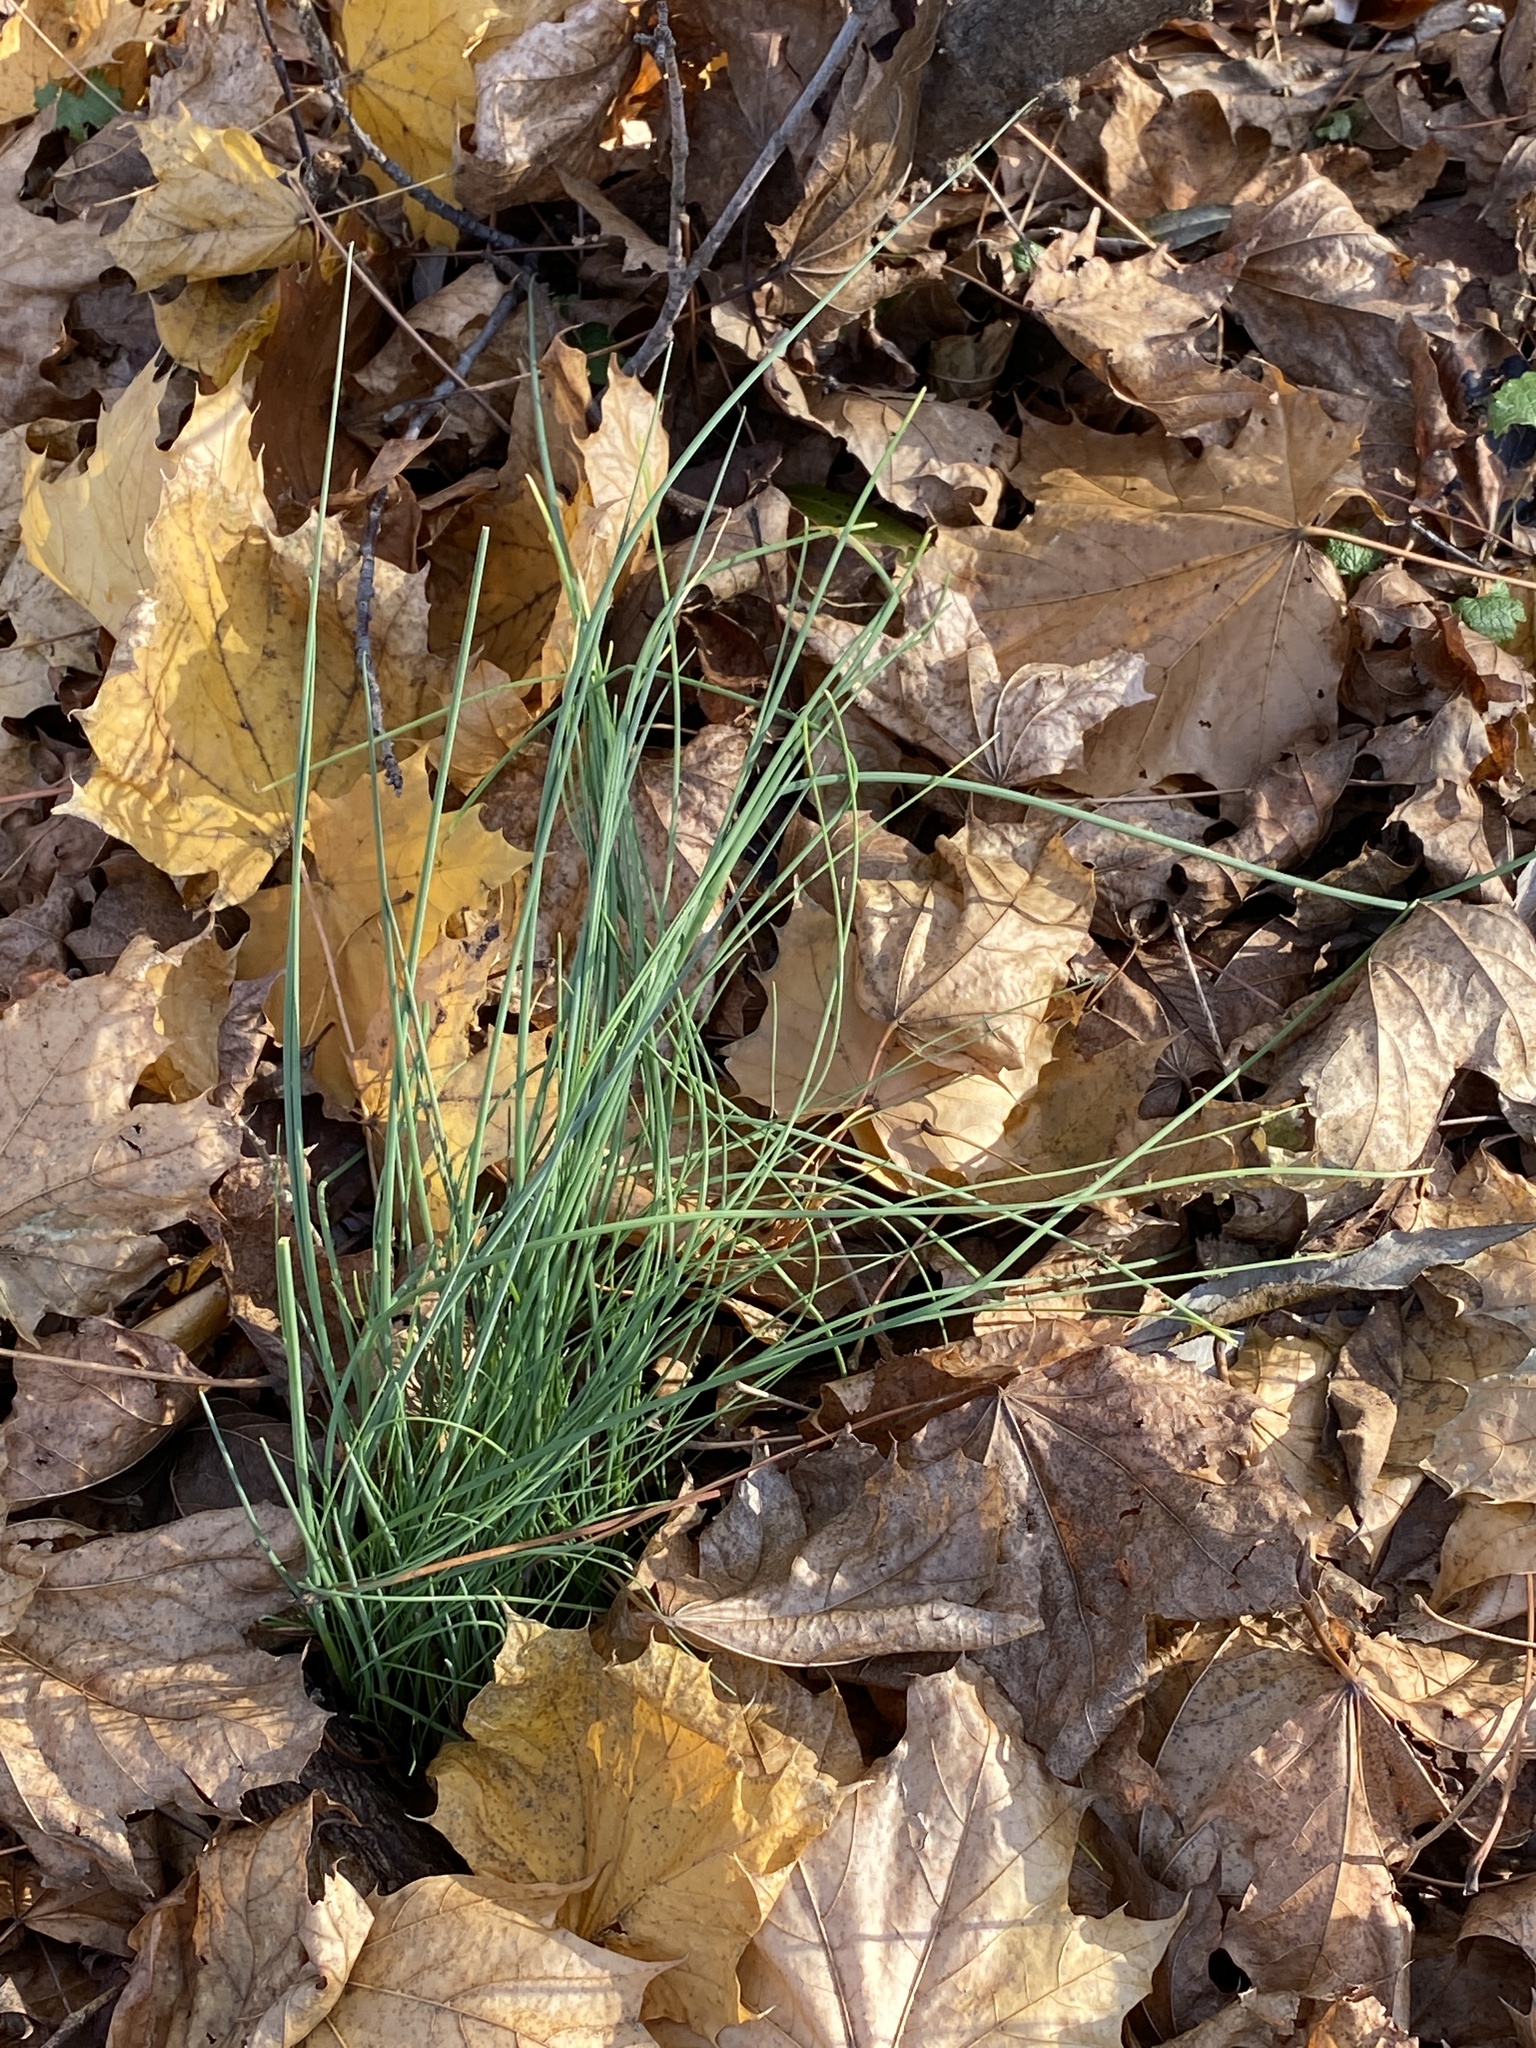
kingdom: Plantae
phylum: Tracheophyta
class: Liliopsida
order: Asparagales
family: Amaryllidaceae
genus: Allium
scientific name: Allium vineale
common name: Crow garlic
